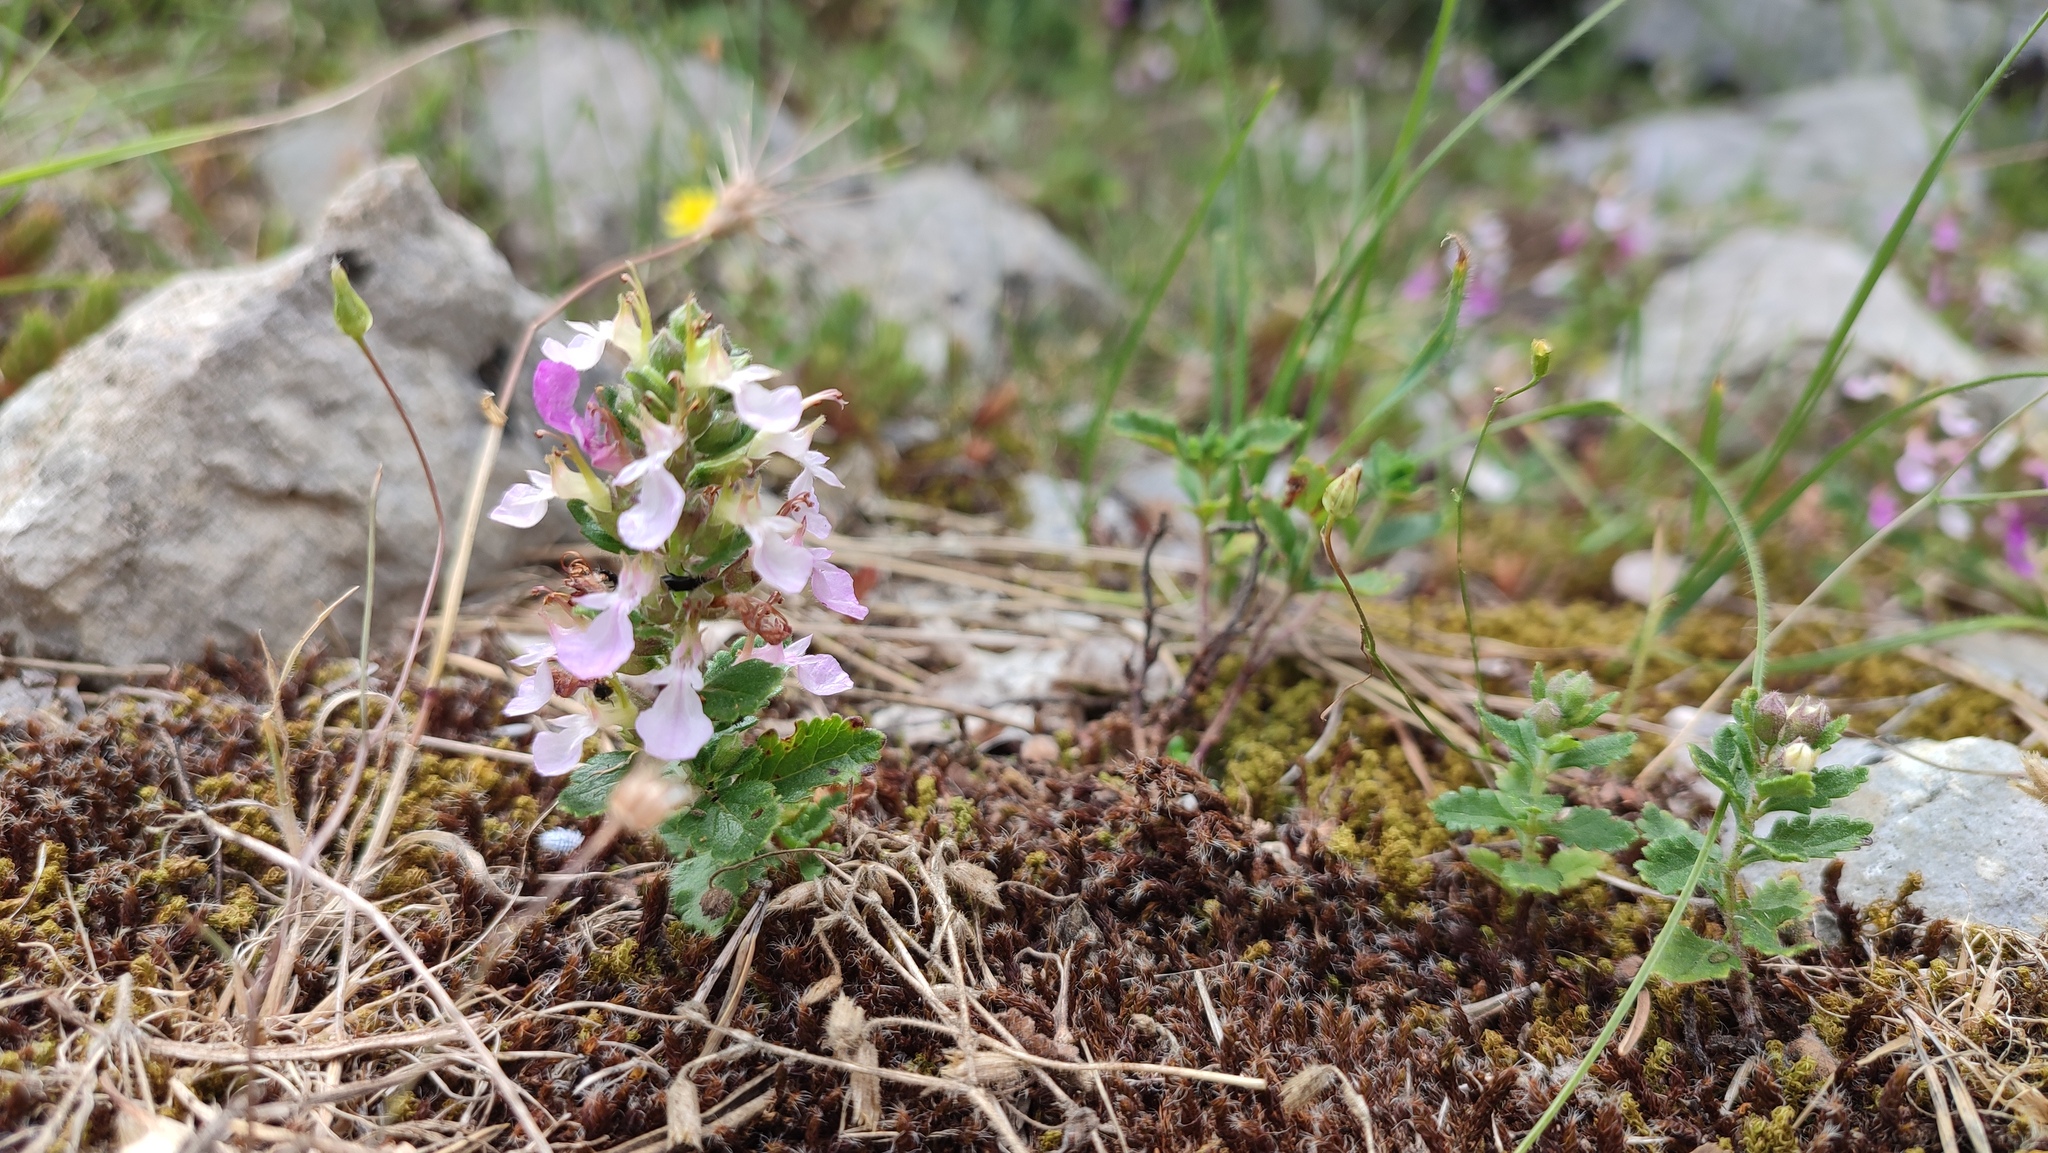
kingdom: Plantae
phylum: Tracheophyta
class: Magnoliopsida
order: Lamiales
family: Lamiaceae
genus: Teucrium
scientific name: Teucrium chamaedrys
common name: Wall germander
